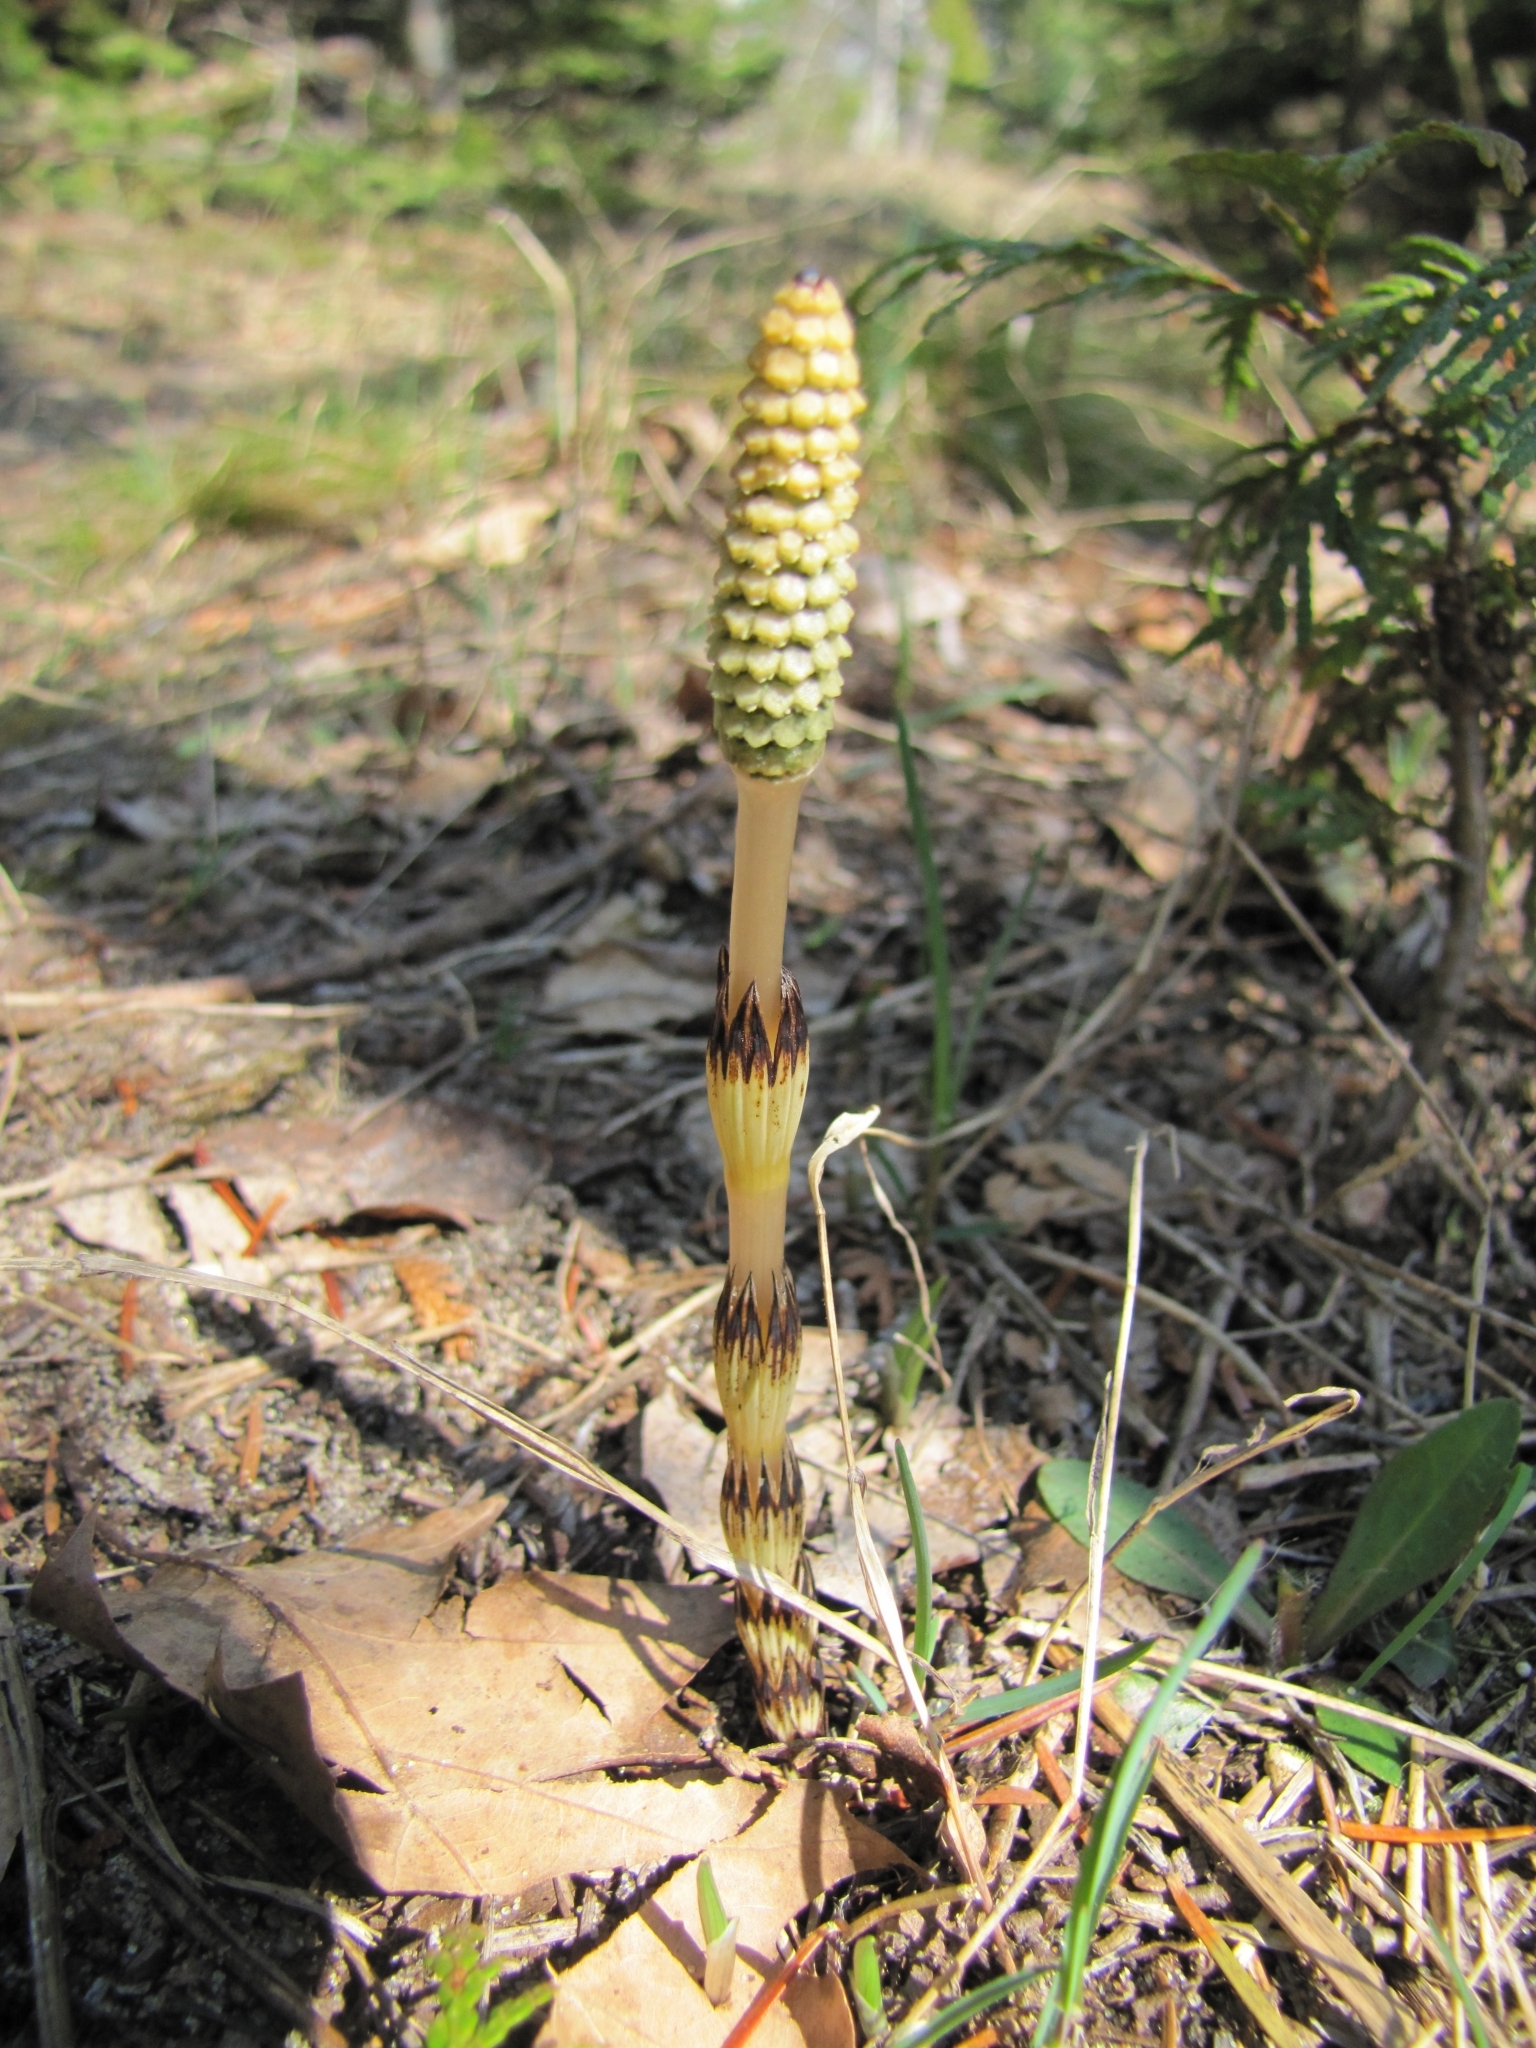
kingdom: Plantae
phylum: Tracheophyta
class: Polypodiopsida
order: Equisetales
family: Equisetaceae
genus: Equisetum
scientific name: Equisetum arvense
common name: Field horsetail
